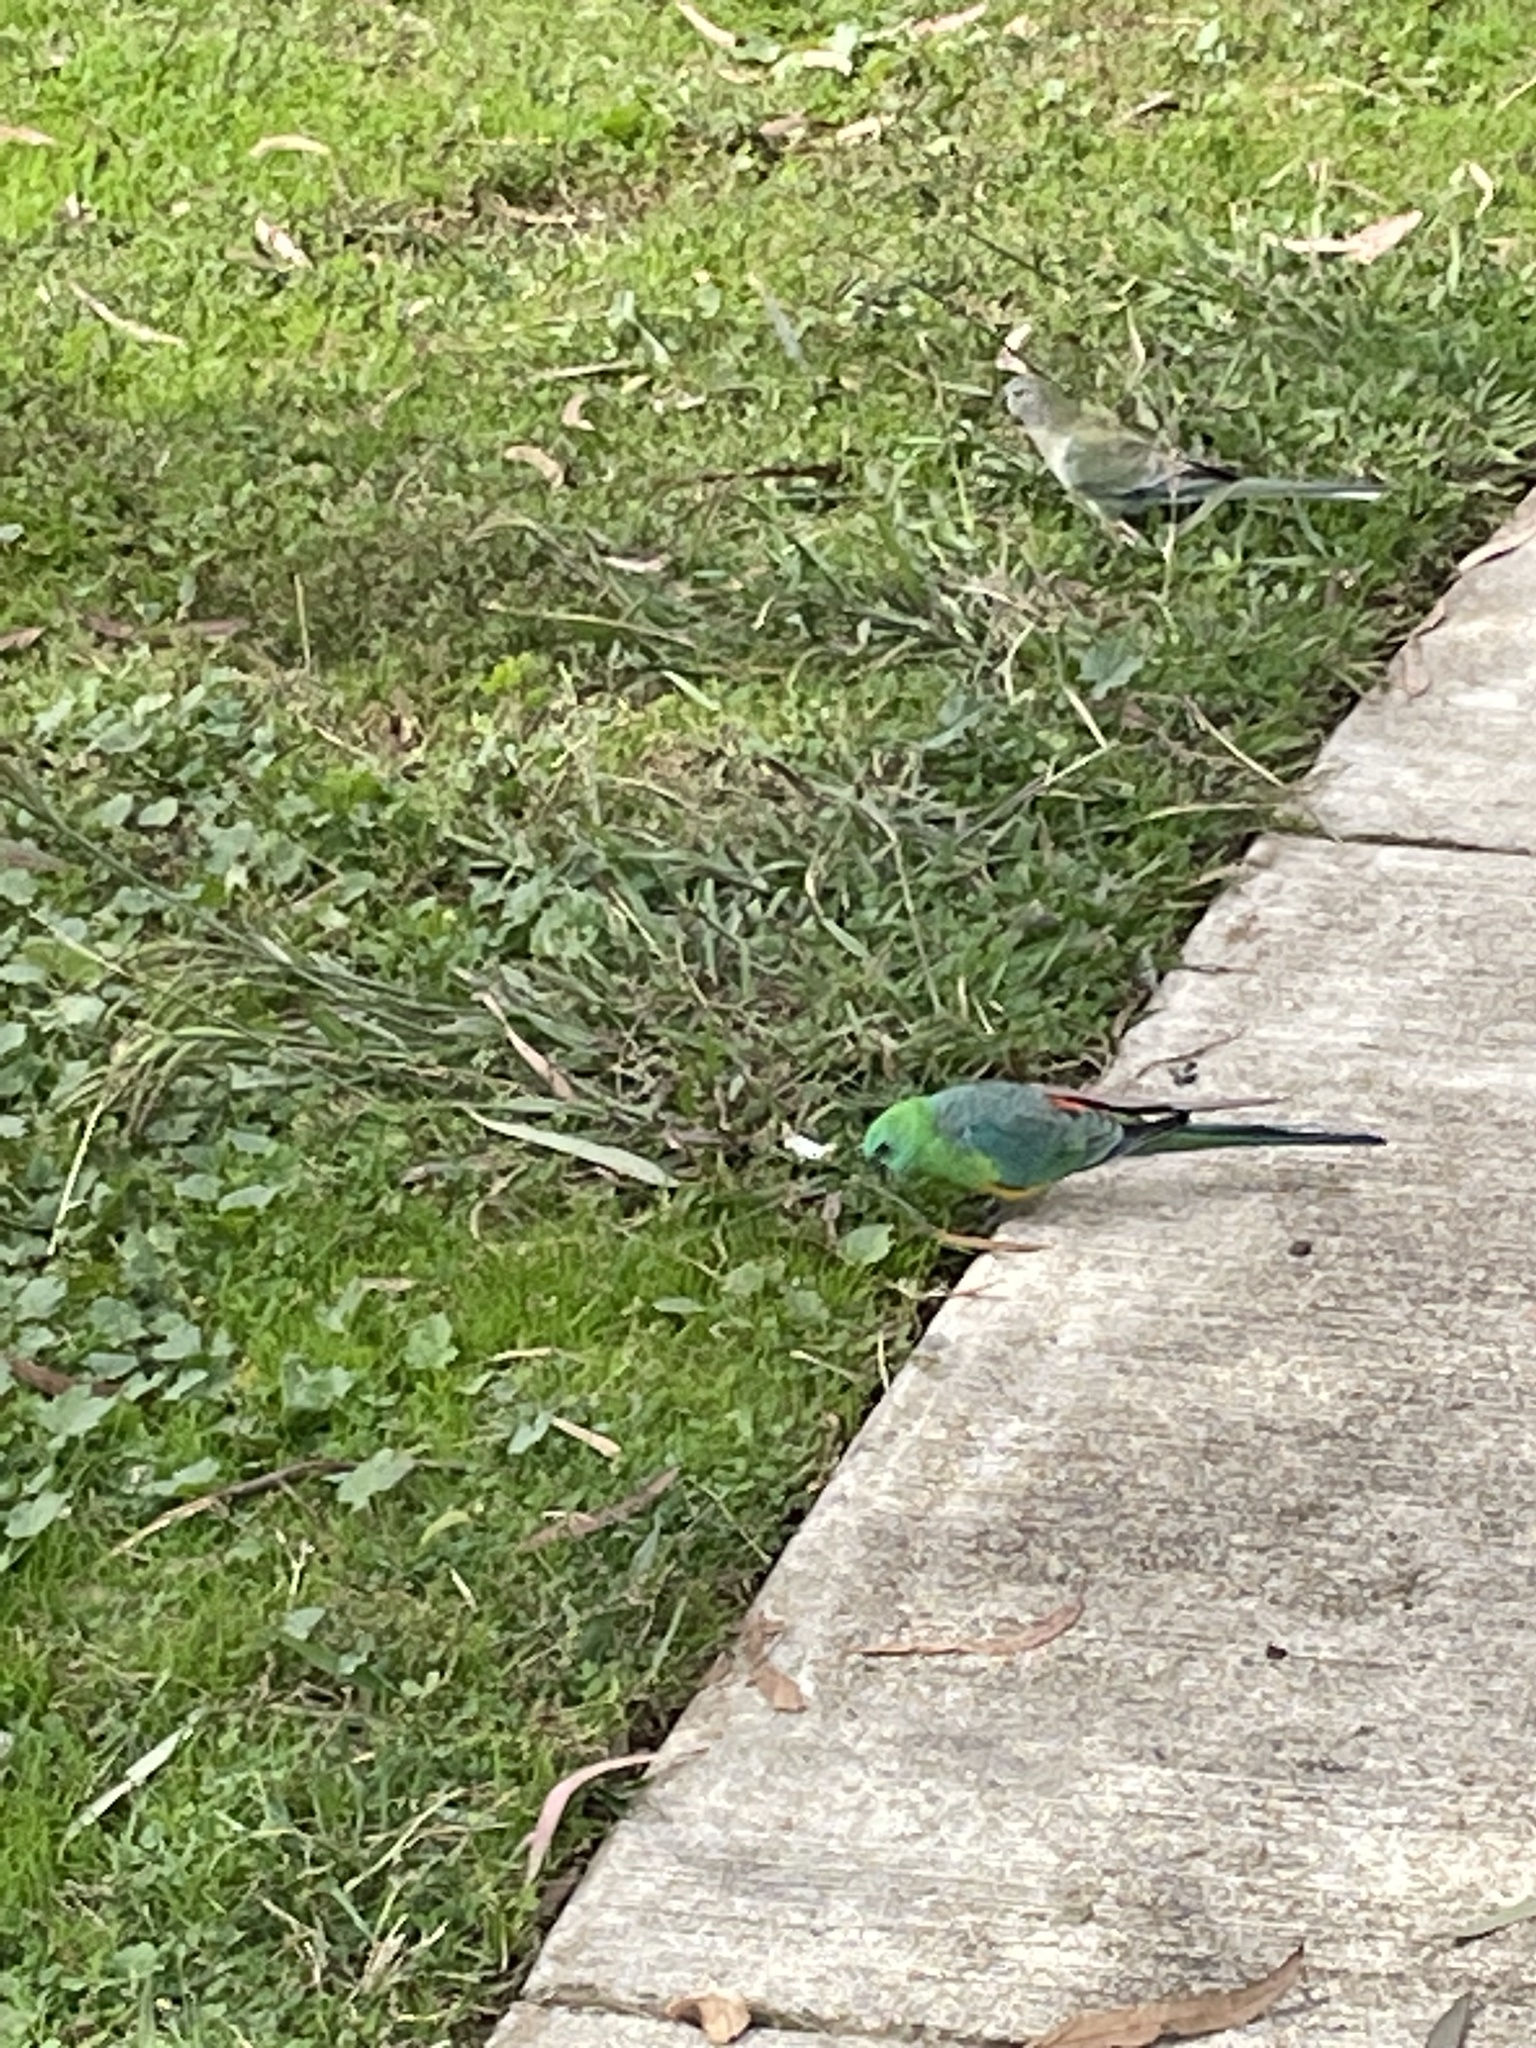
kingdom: Animalia
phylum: Chordata
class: Aves
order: Psittaciformes
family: Psittacidae
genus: Psephotus
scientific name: Psephotus haematonotus
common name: Red-rumped parrot
